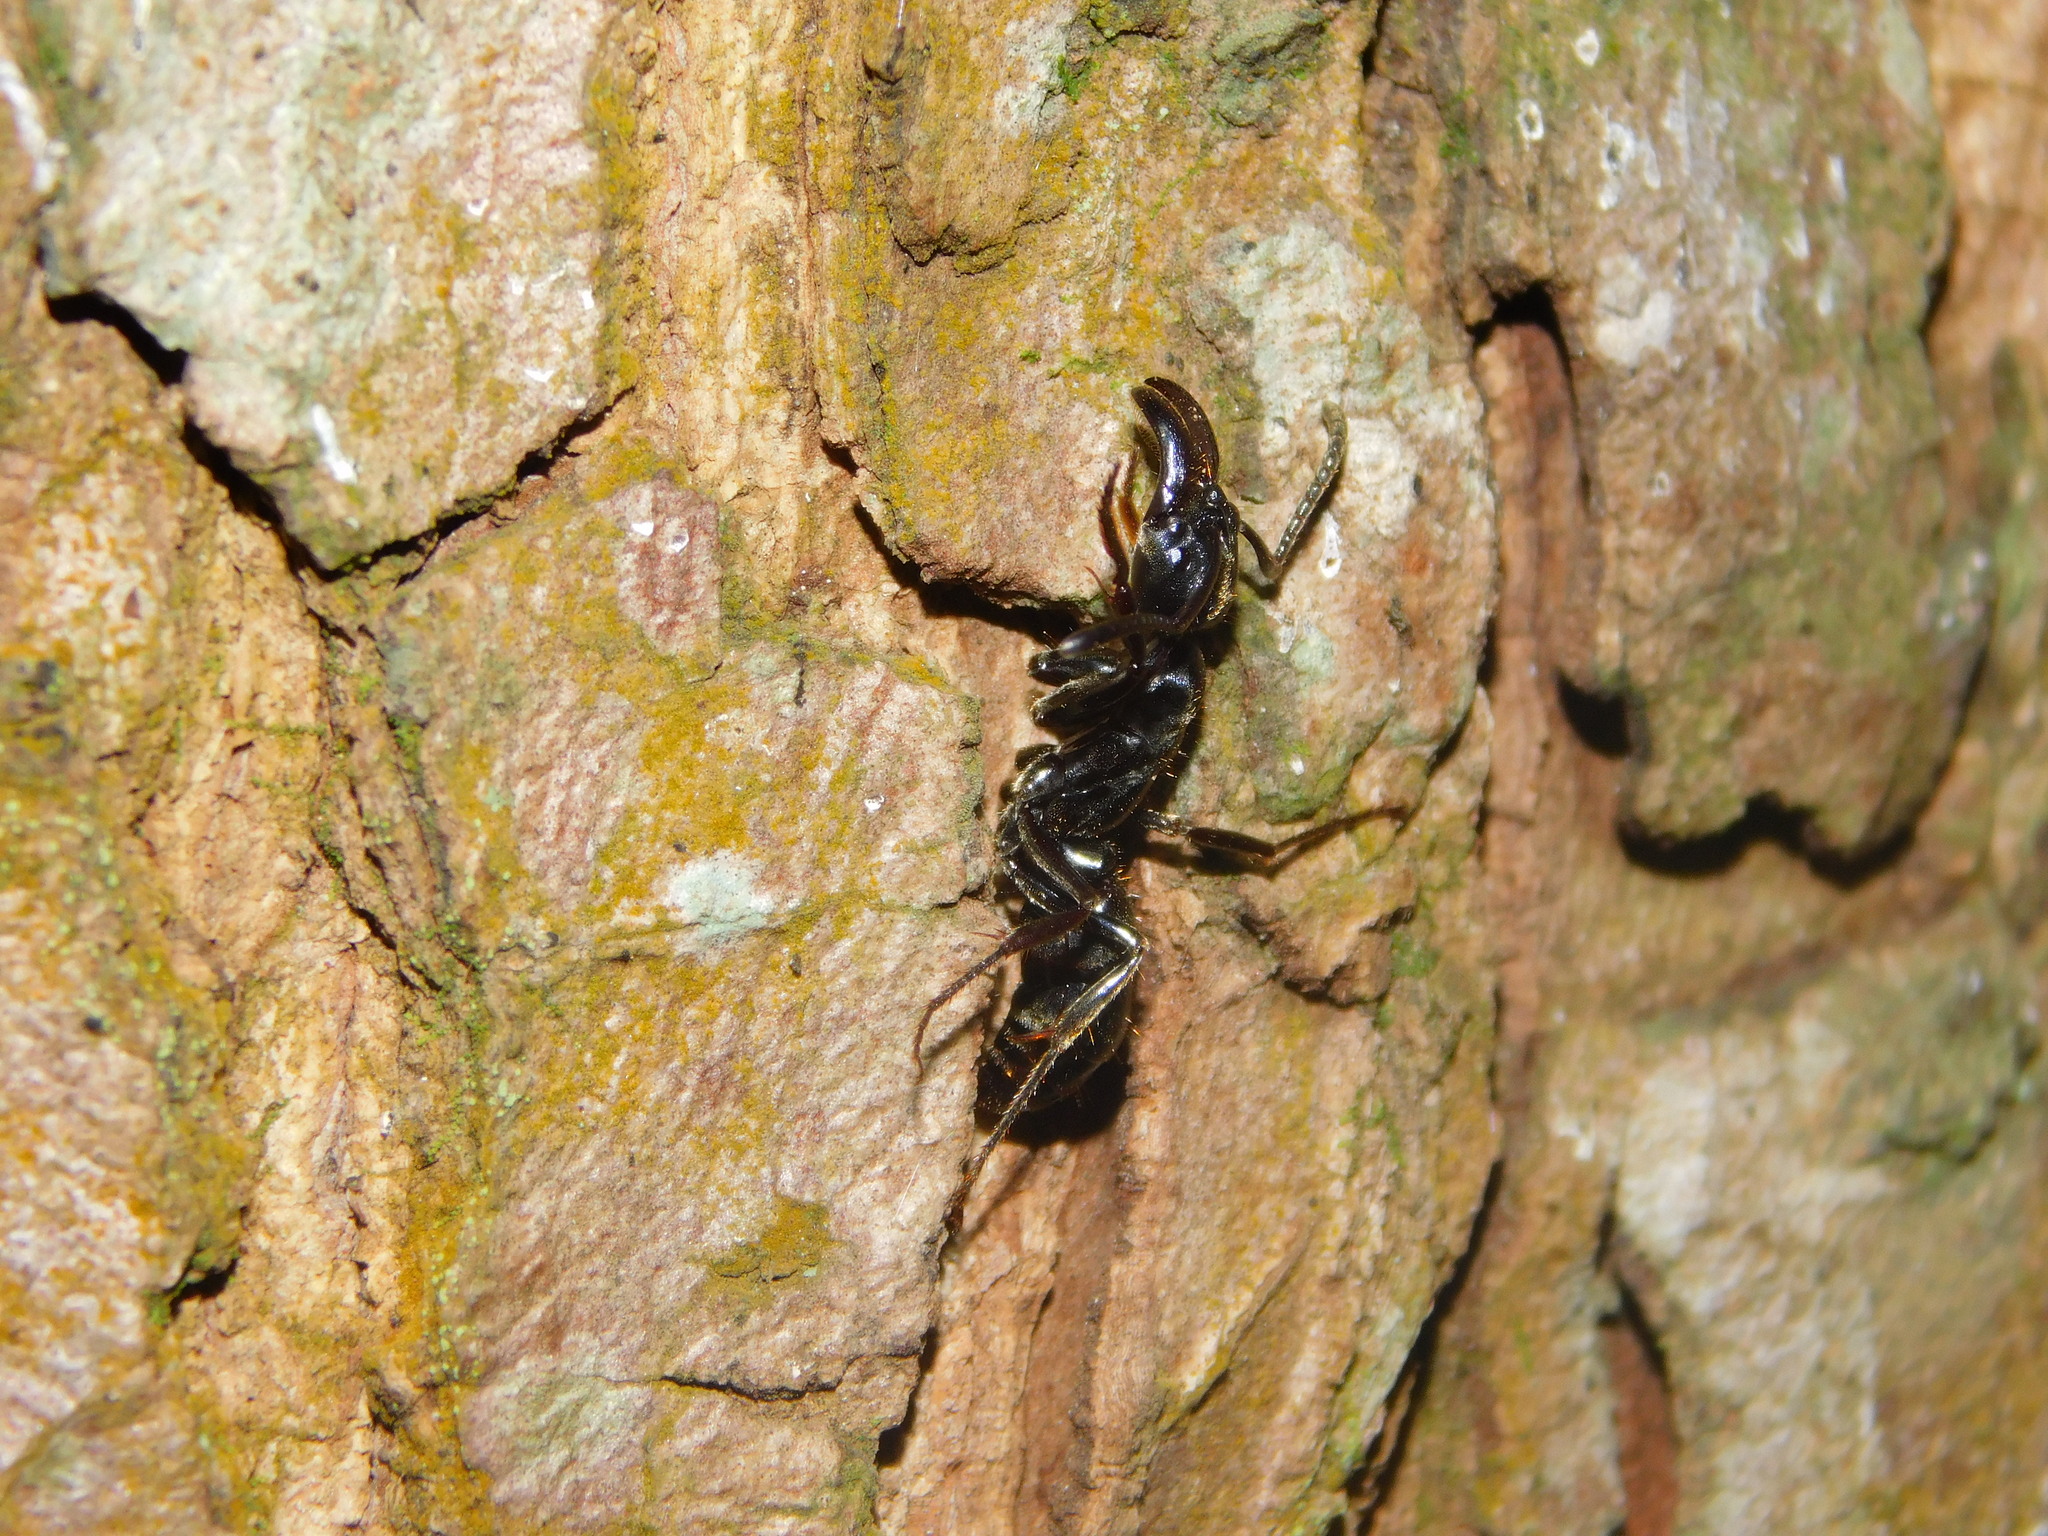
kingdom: Animalia
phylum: Arthropoda
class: Arachnida
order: Araneae
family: Thomisidae
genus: Heterogriffus
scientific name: Heterogriffus berlandi
